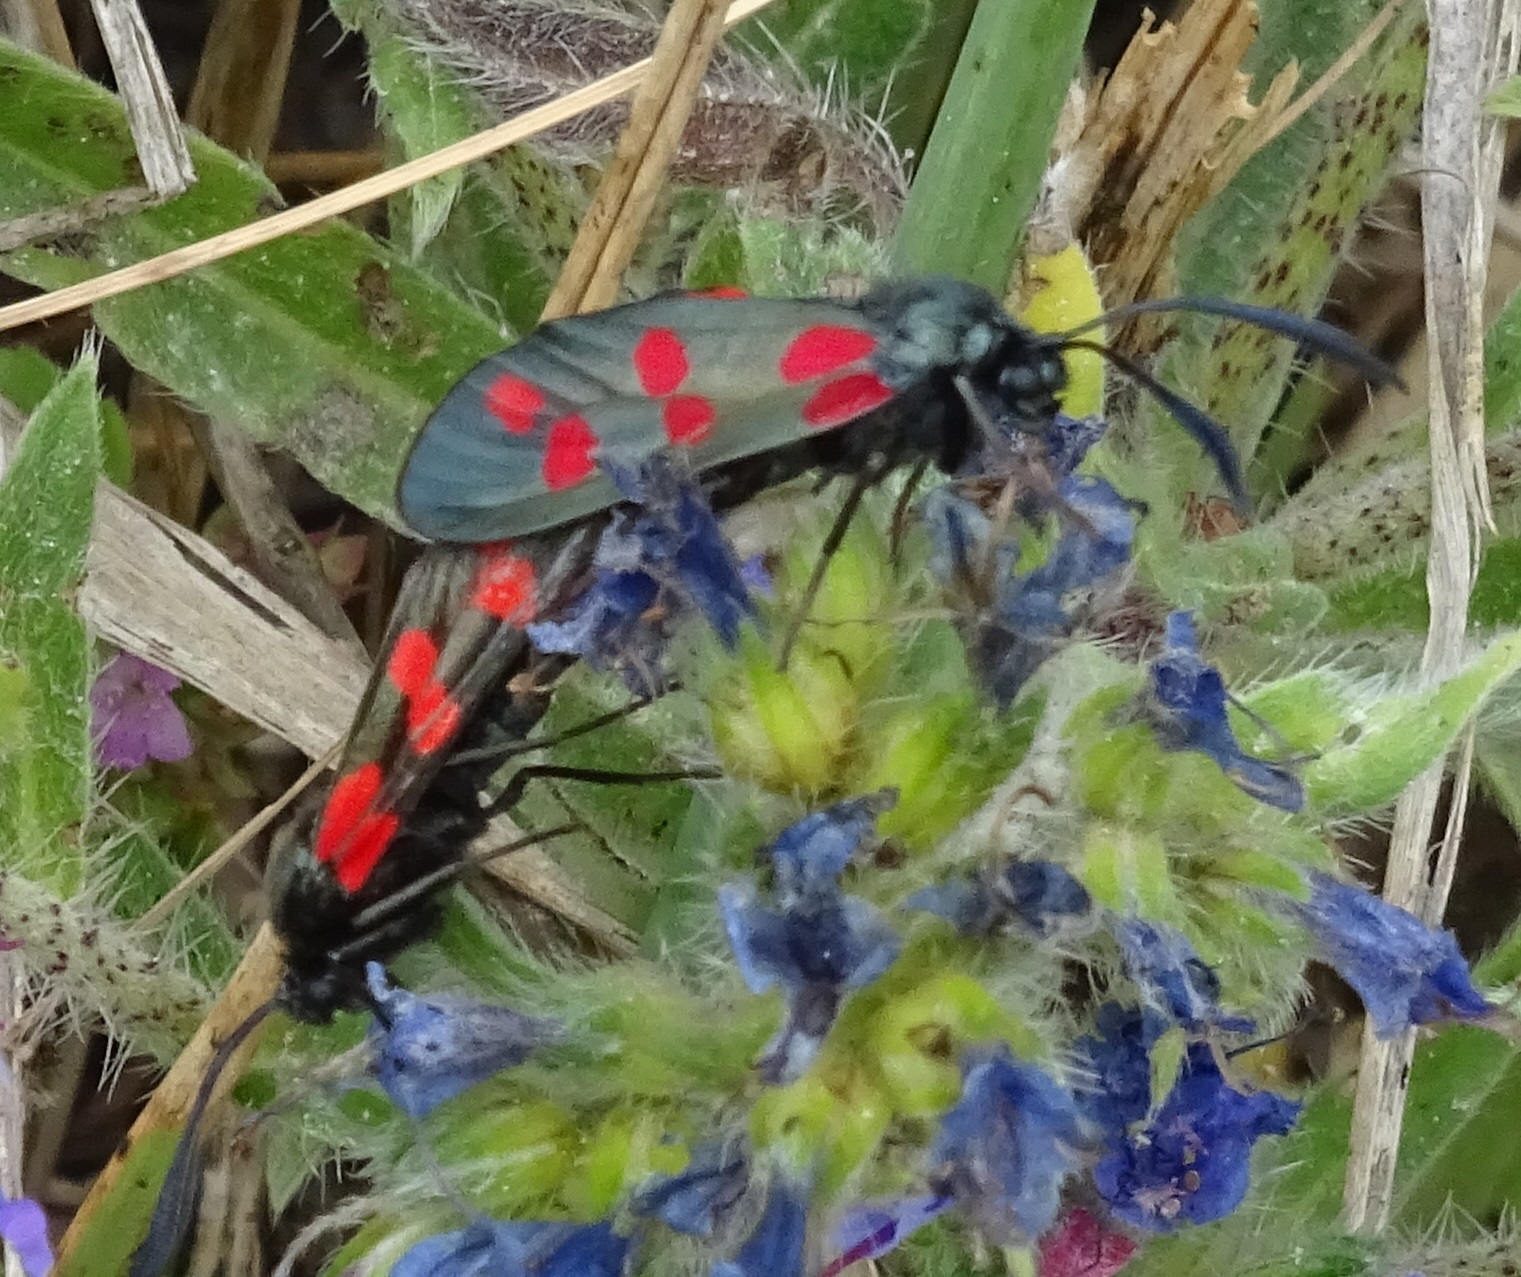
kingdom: Animalia
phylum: Arthropoda
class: Insecta
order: Lepidoptera
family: Zygaenidae
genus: Zygaena
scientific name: Zygaena filipendulae
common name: Six-spot burnet
